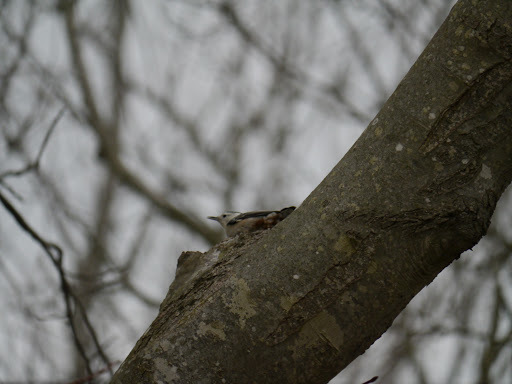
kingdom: Animalia
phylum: Chordata
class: Aves
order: Passeriformes
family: Sittidae
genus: Sitta
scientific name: Sitta carolinensis
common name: White-breasted nuthatch
